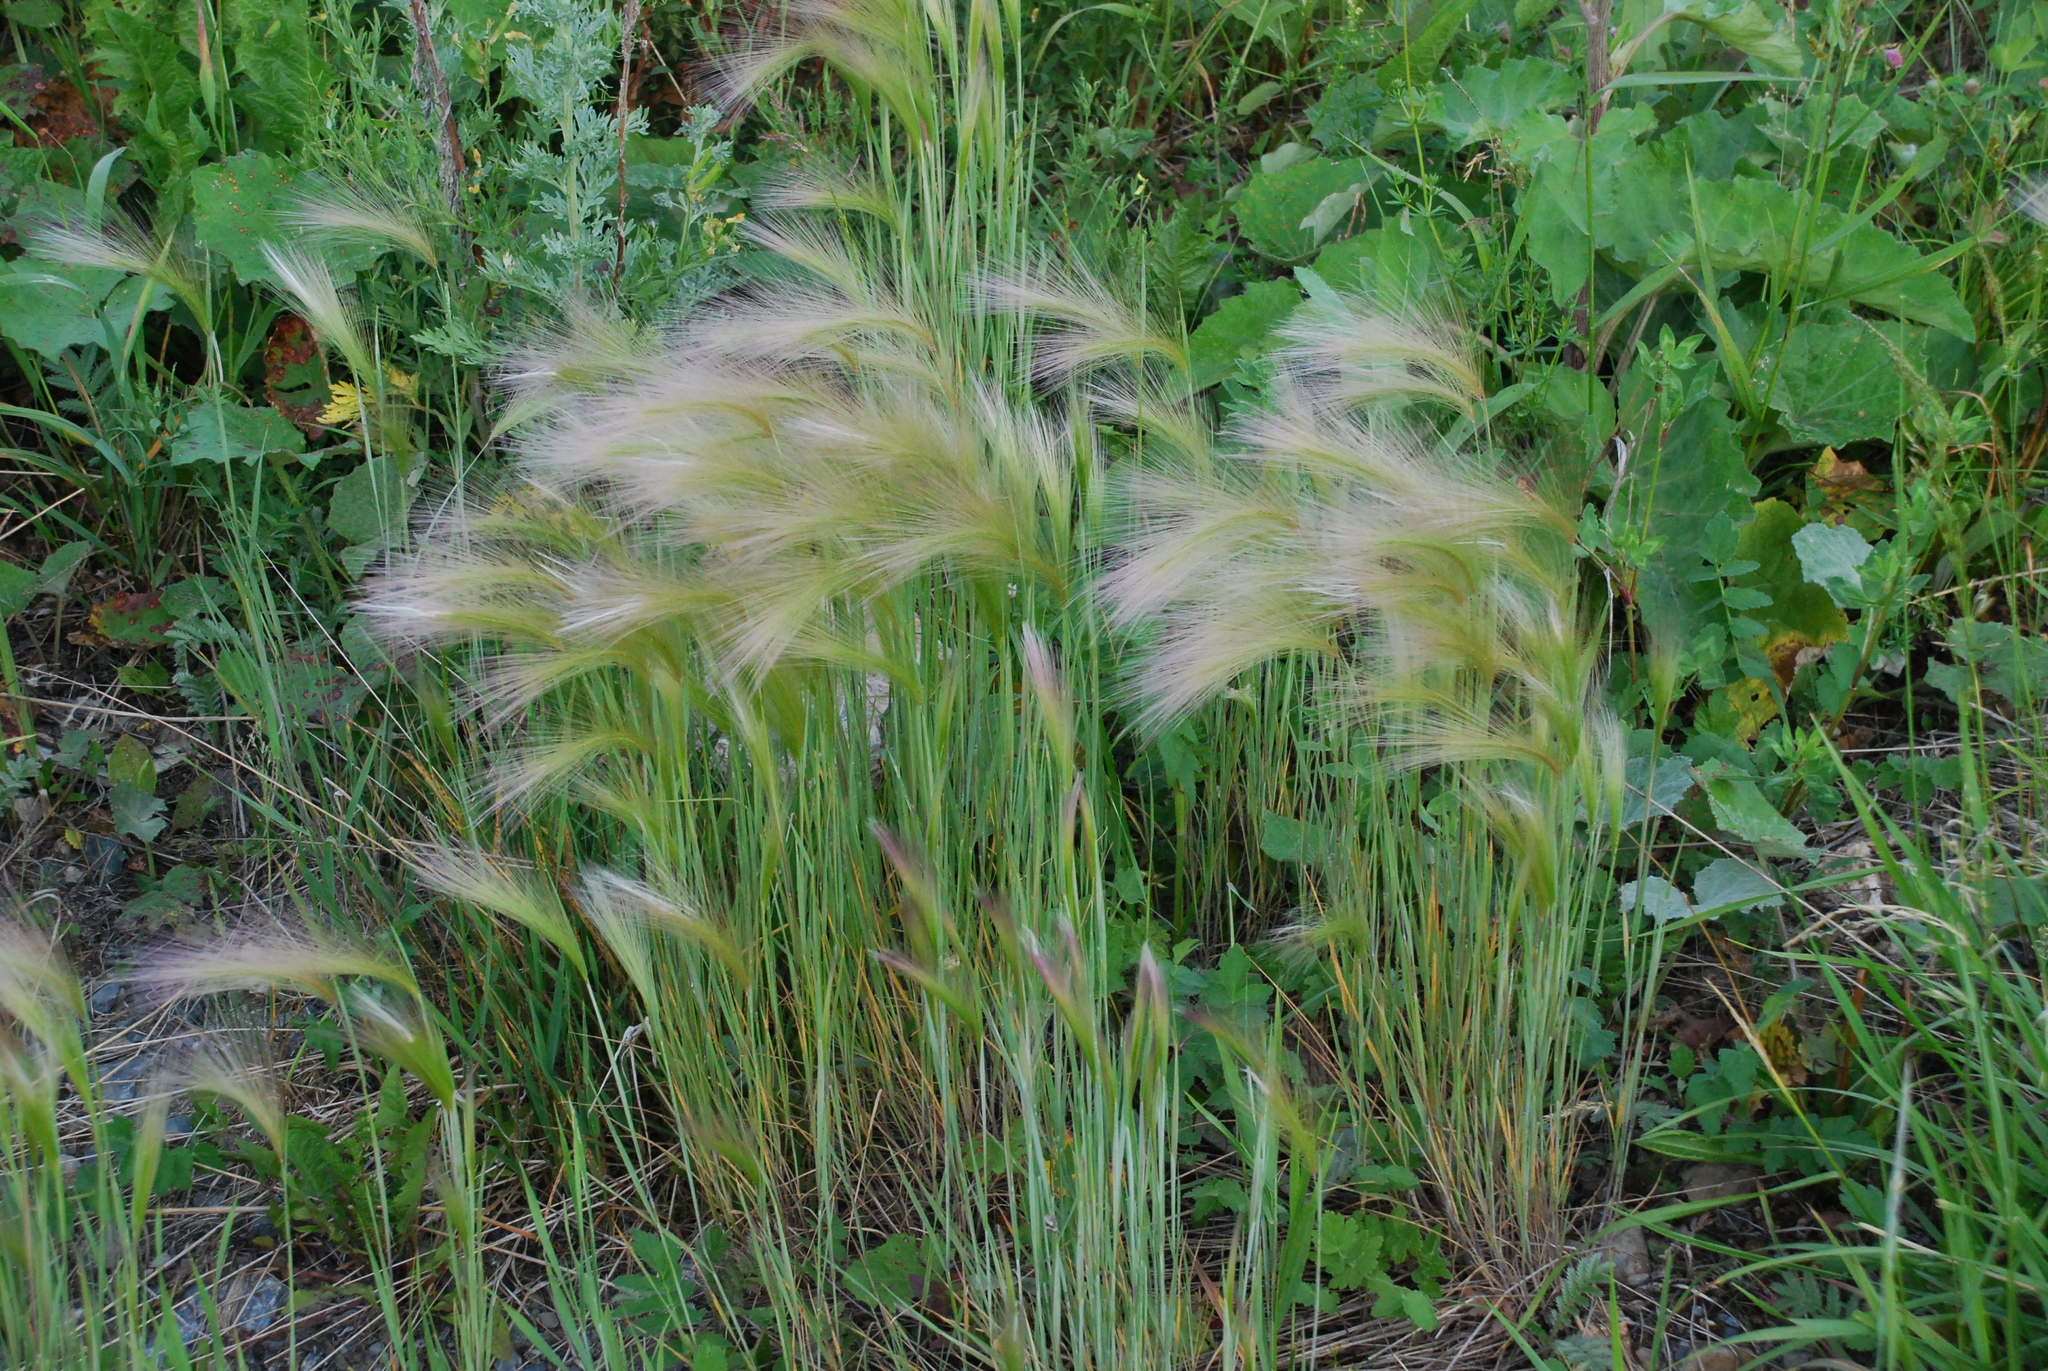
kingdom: Plantae
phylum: Tracheophyta
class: Liliopsida
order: Poales
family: Poaceae
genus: Hordeum
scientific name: Hordeum jubatum
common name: Foxtail barley
